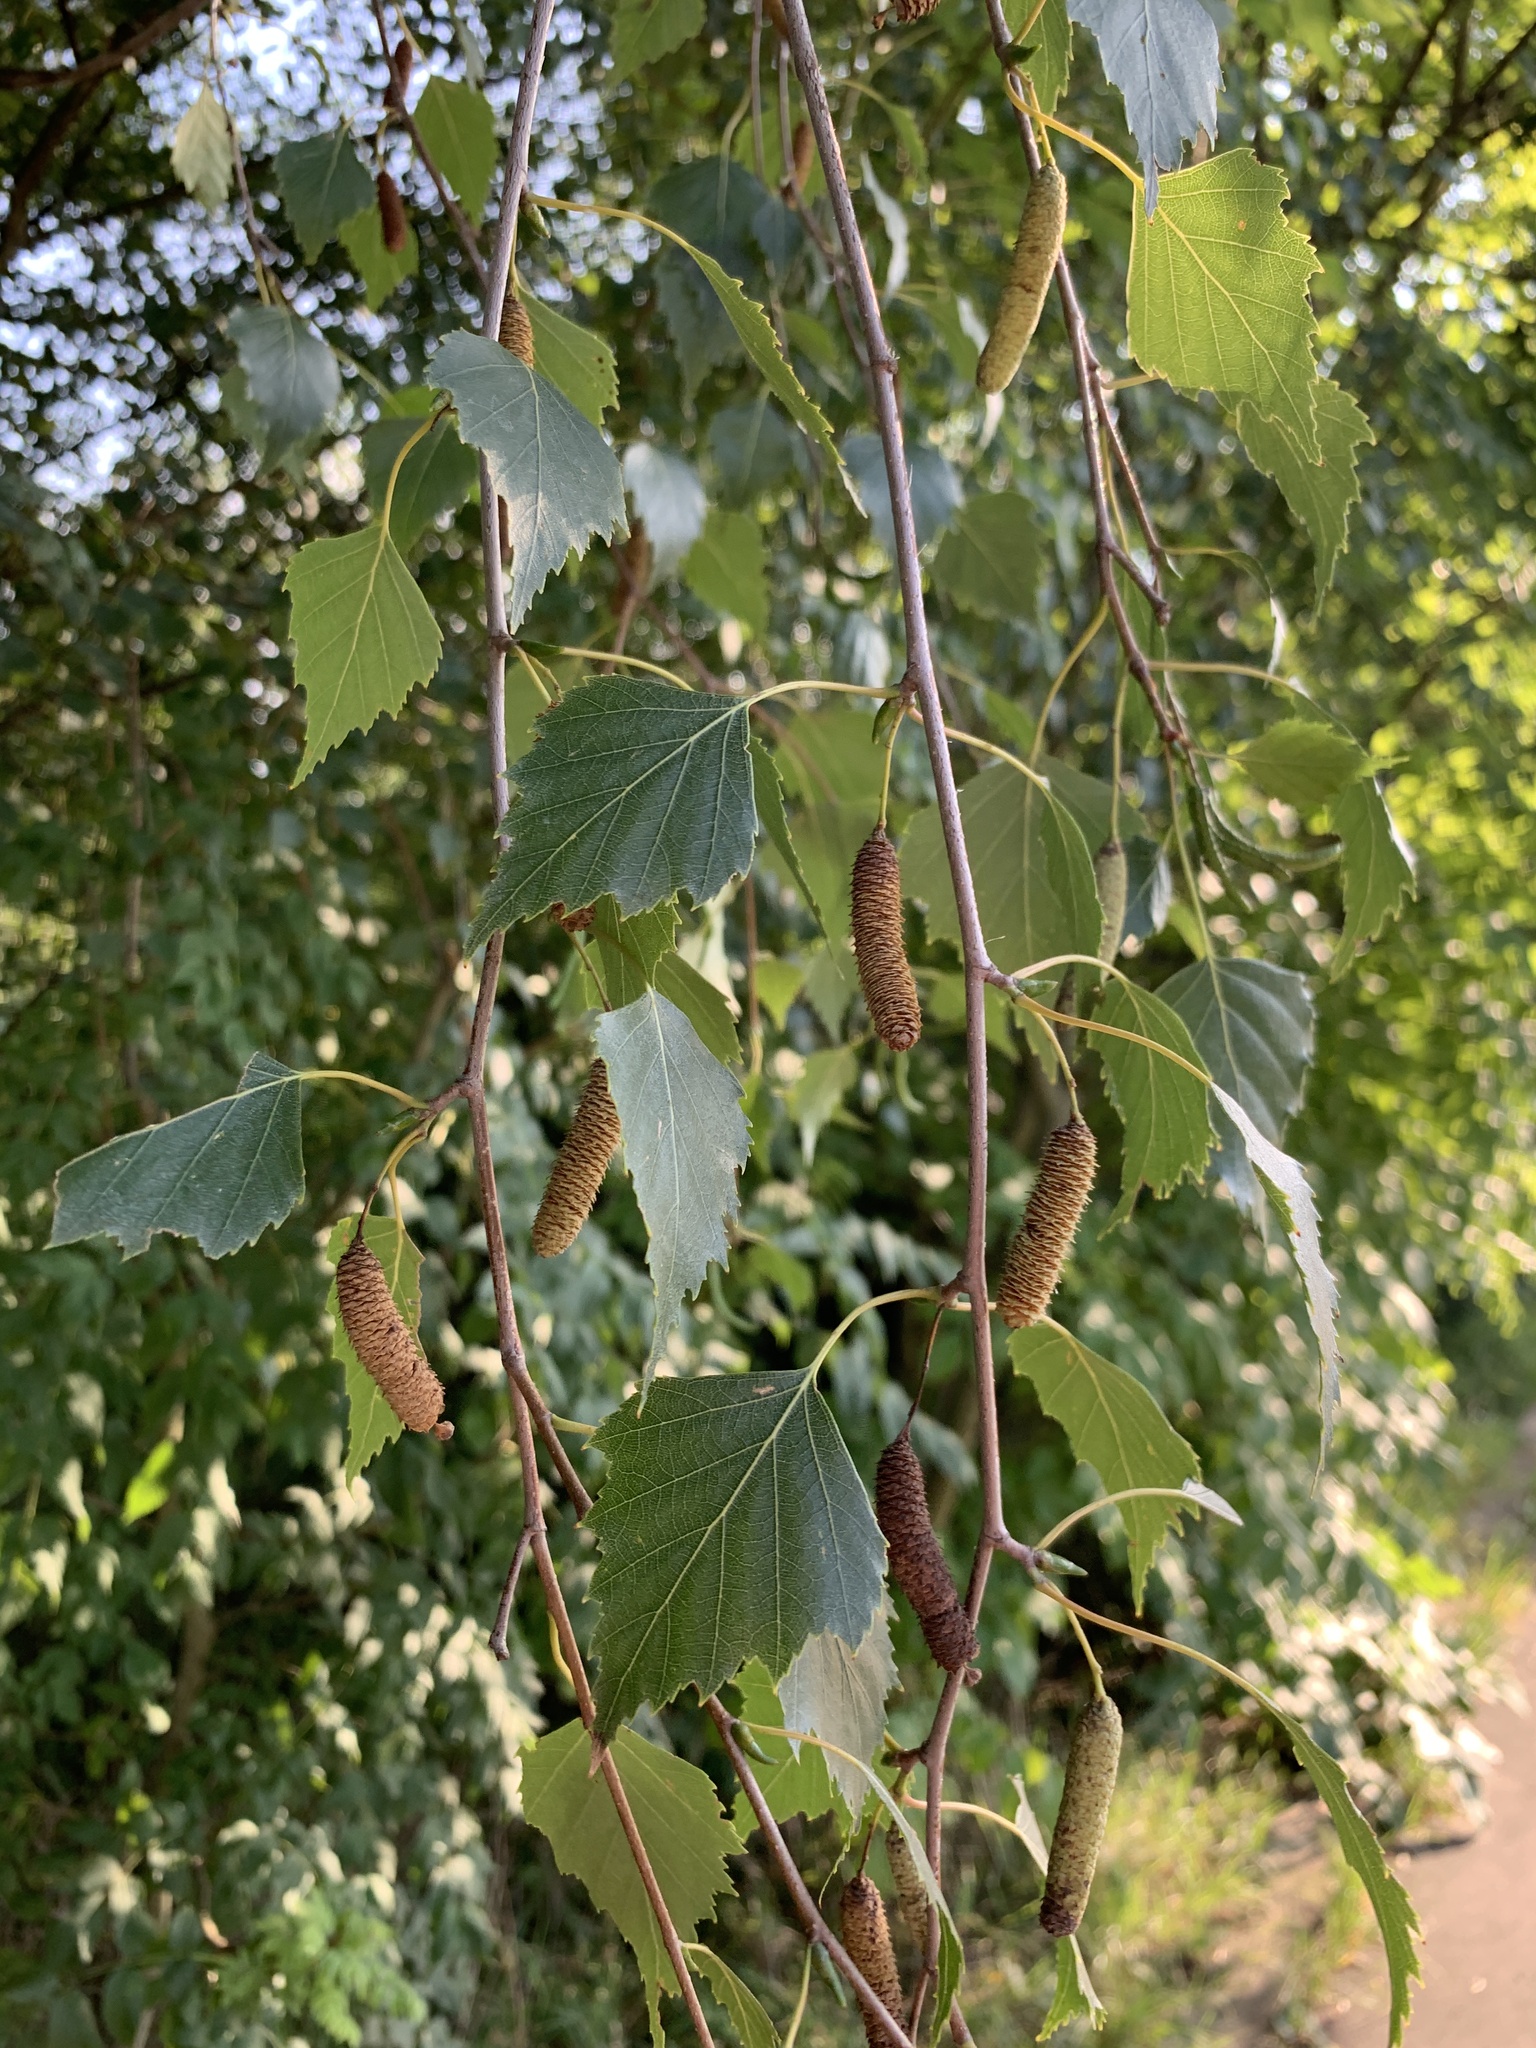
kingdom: Plantae
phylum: Tracheophyta
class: Magnoliopsida
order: Fagales
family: Betulaceae
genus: Betula
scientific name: Betula pendula
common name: Silver birch
